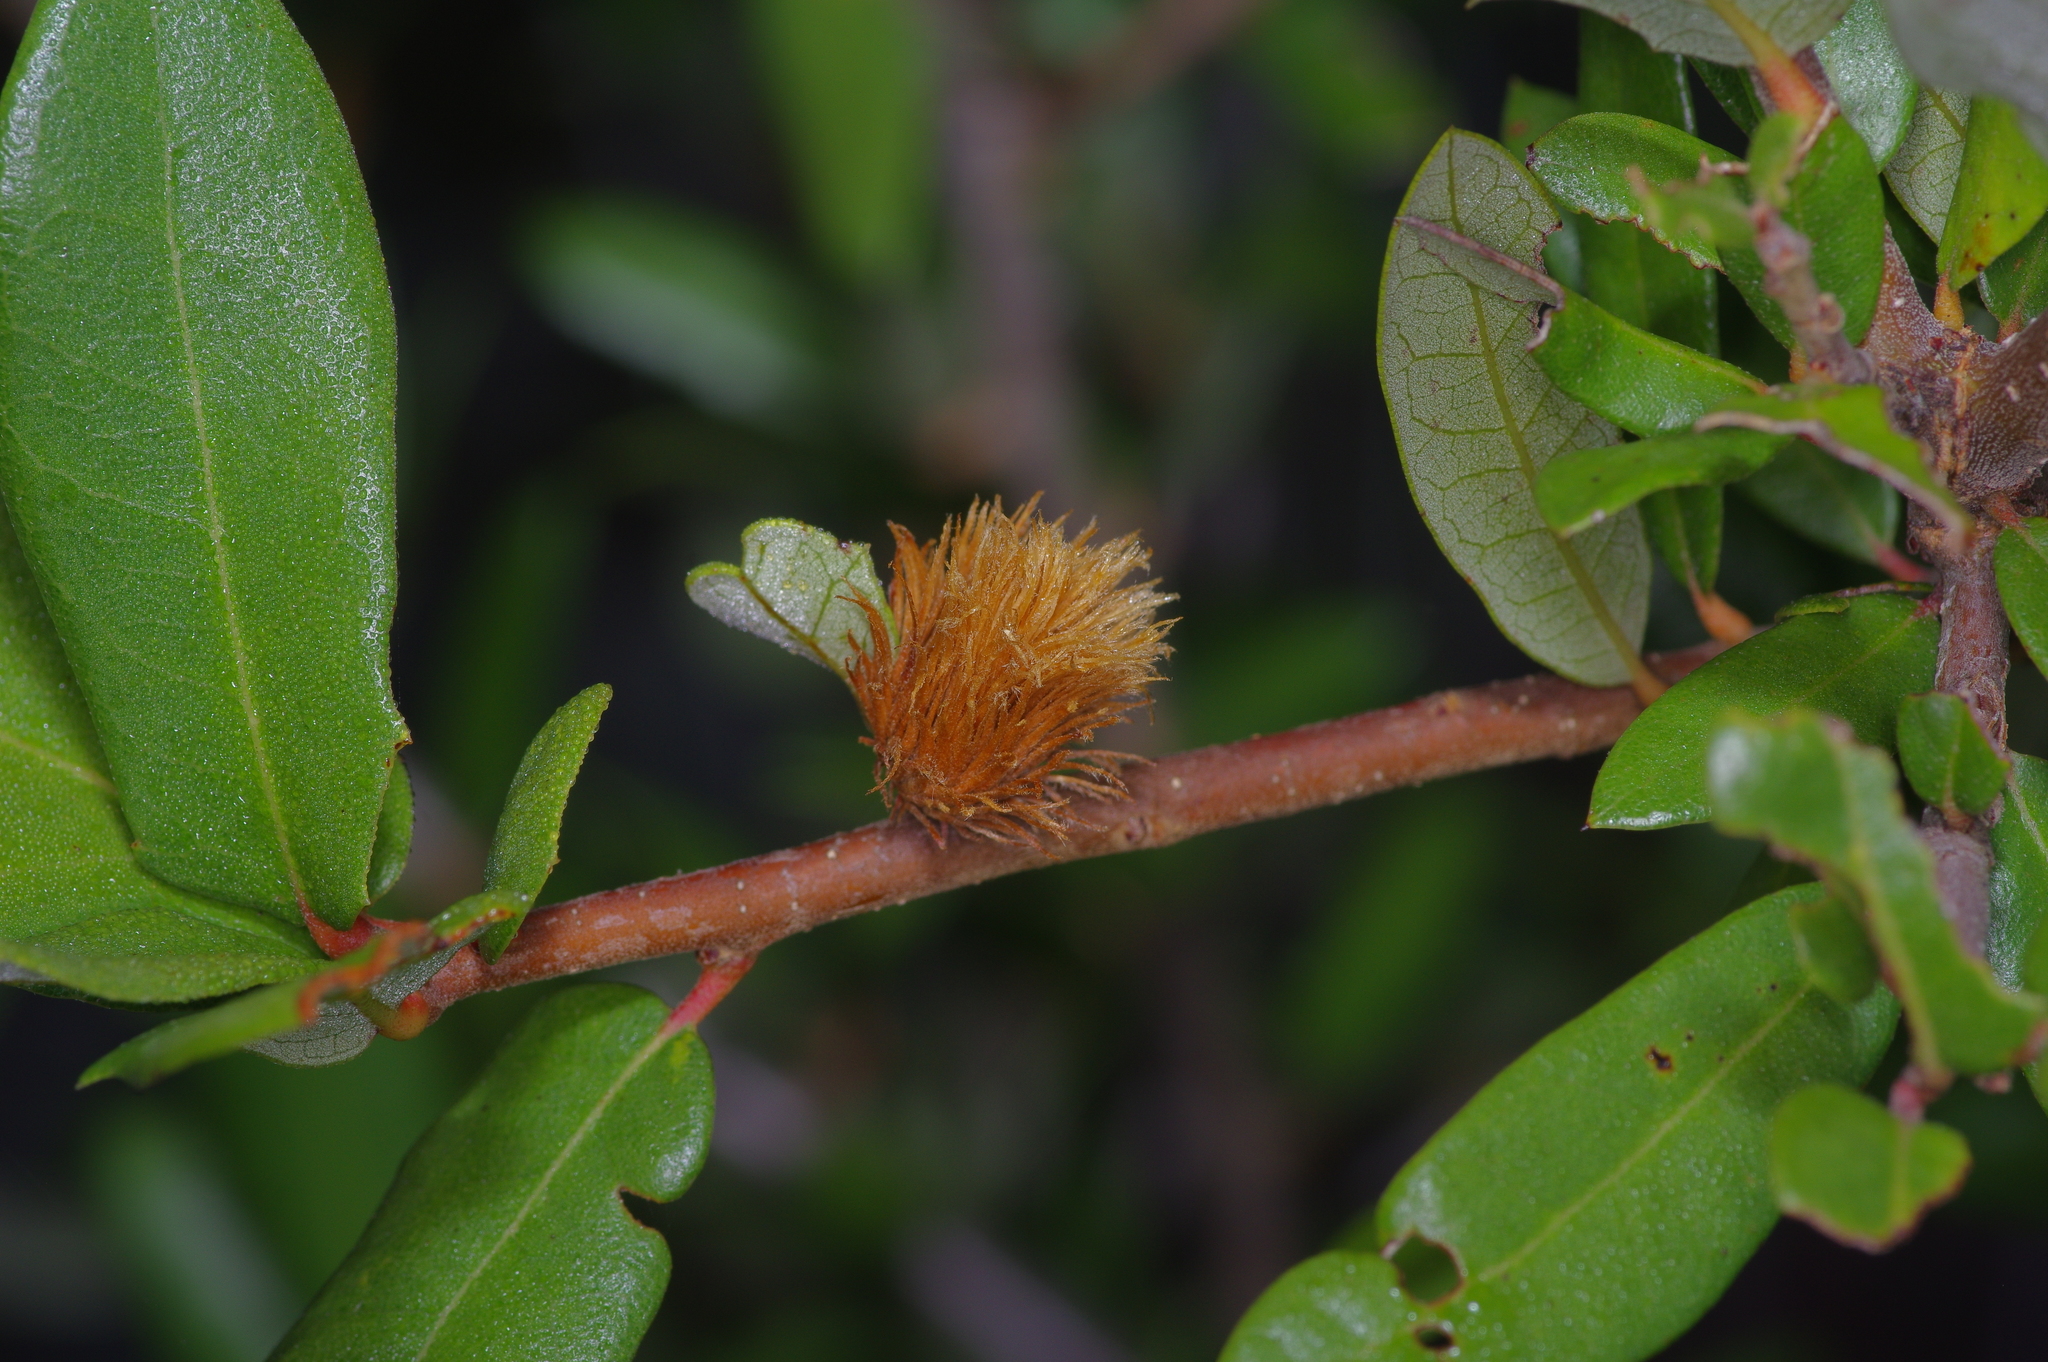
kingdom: Animalia
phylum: Arthropoda
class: Insecta
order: Hymenoptera
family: Cynipidae
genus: Andricus
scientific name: Andricus quercusfoliatus
